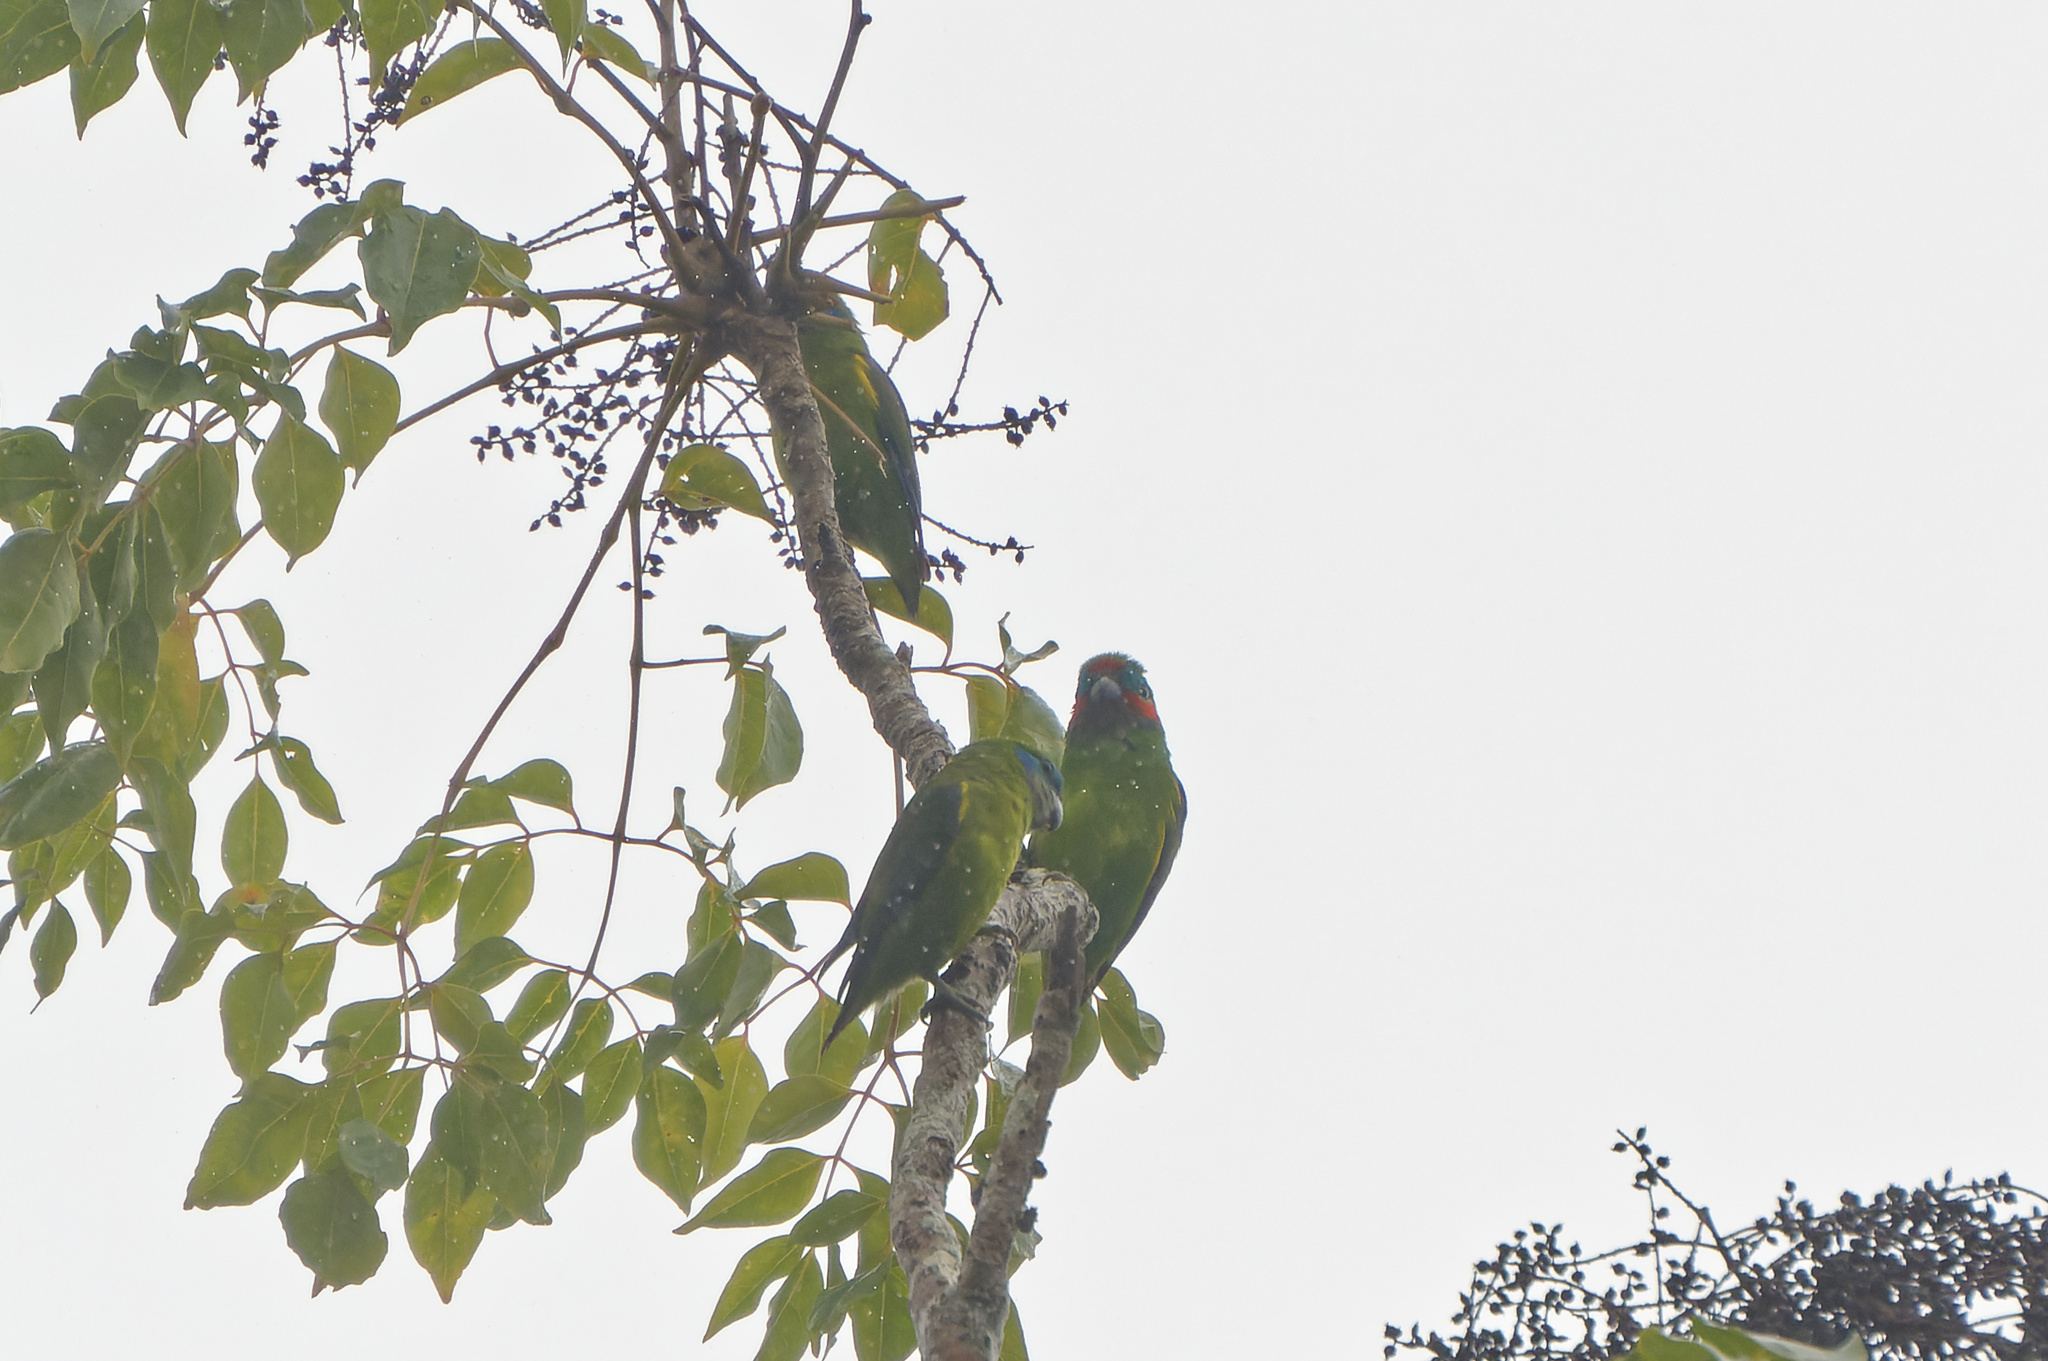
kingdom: Animalia
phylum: Chordata
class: Aves
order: Psittaciformes
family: Psittacidae
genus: Cyclopsitta
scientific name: Cyclopsitta diophthalma
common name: Double-eyed fig parrot
